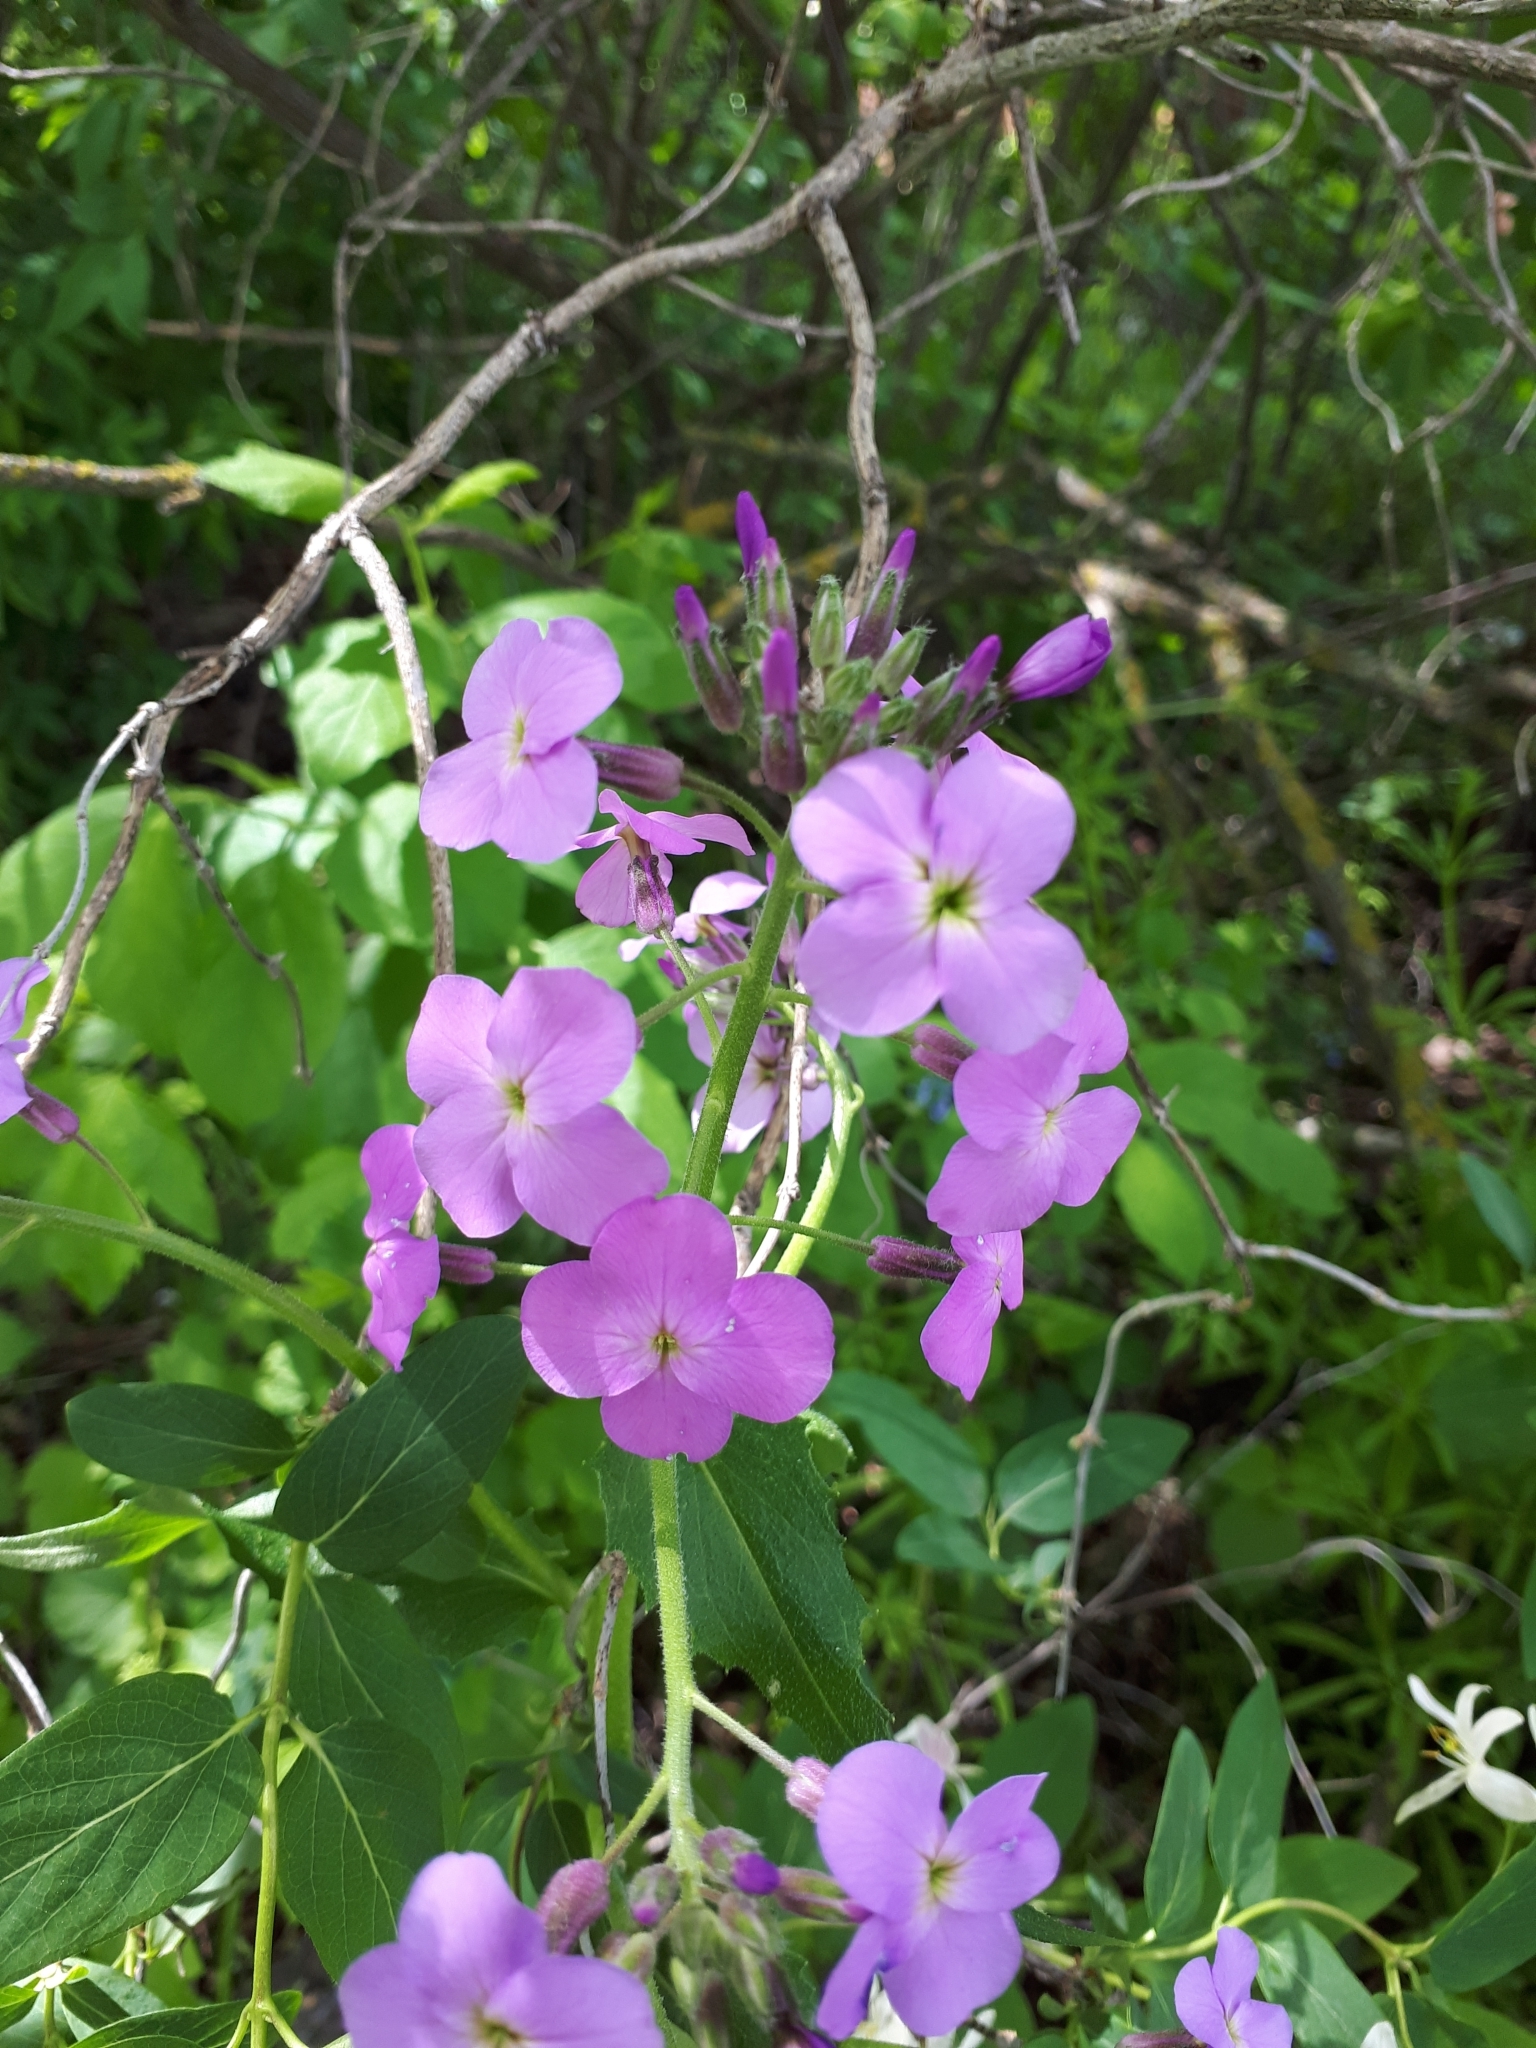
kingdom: Plantae
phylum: Tracheophyta
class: Magnoliopsida
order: Brassicales
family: Brassicaceae
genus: Hesperis
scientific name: Hesperis matronalis
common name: Dame's-violet
